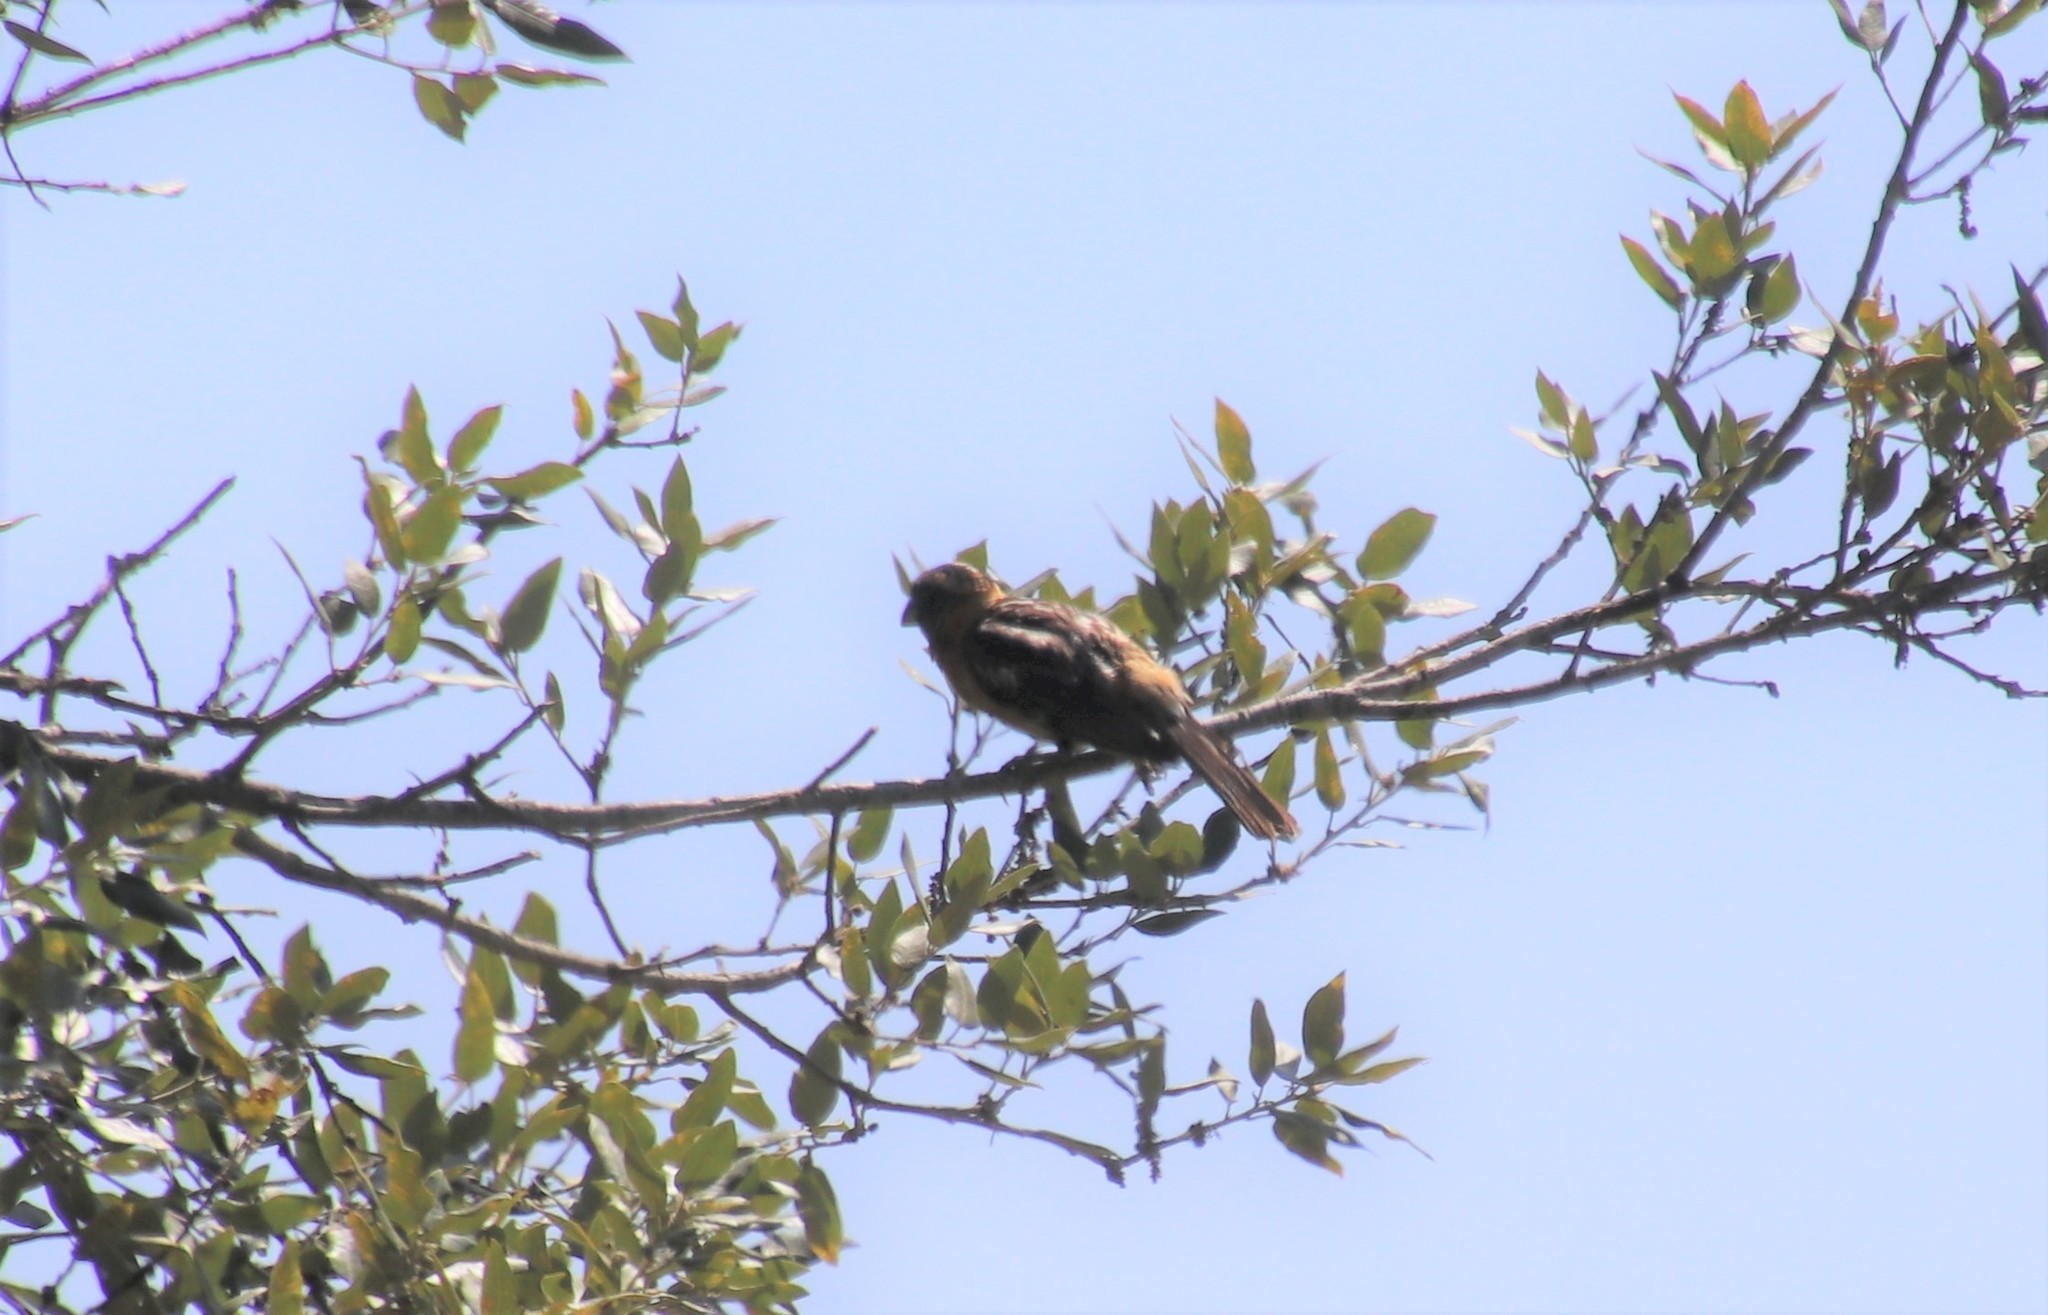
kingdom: Animalia
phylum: Chordata
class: Aves
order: Passeriformes
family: Cardinalidae
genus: Pheucticus
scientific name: Pheucticus melanocephalus
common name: Black-headed grosbeak
